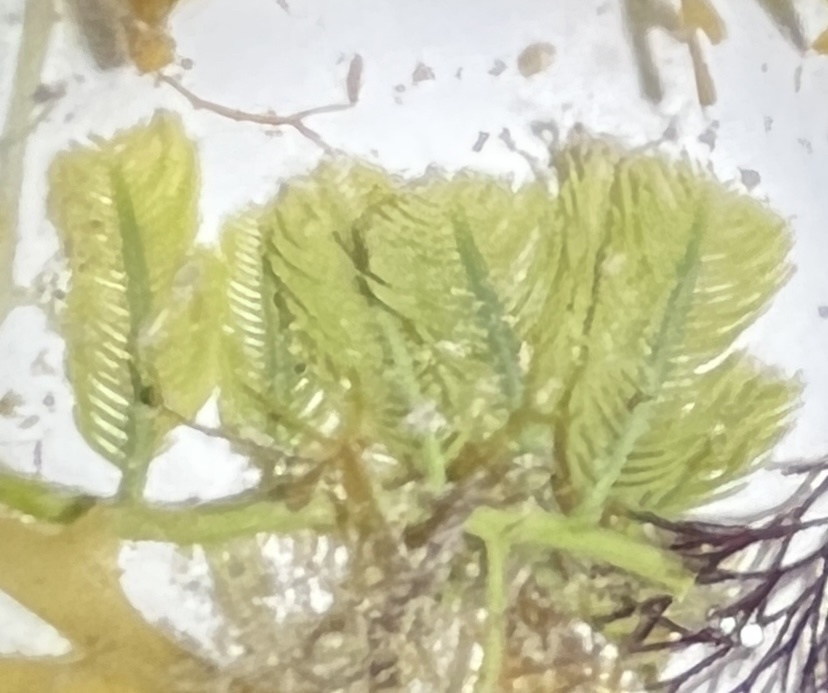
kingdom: Plantae
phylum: Chlorophyta
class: Ulvophyceae
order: Bryopsidales
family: Caulerpaceae
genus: Caulerpa
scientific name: Caulerpa sertularioides
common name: Green feather algae
